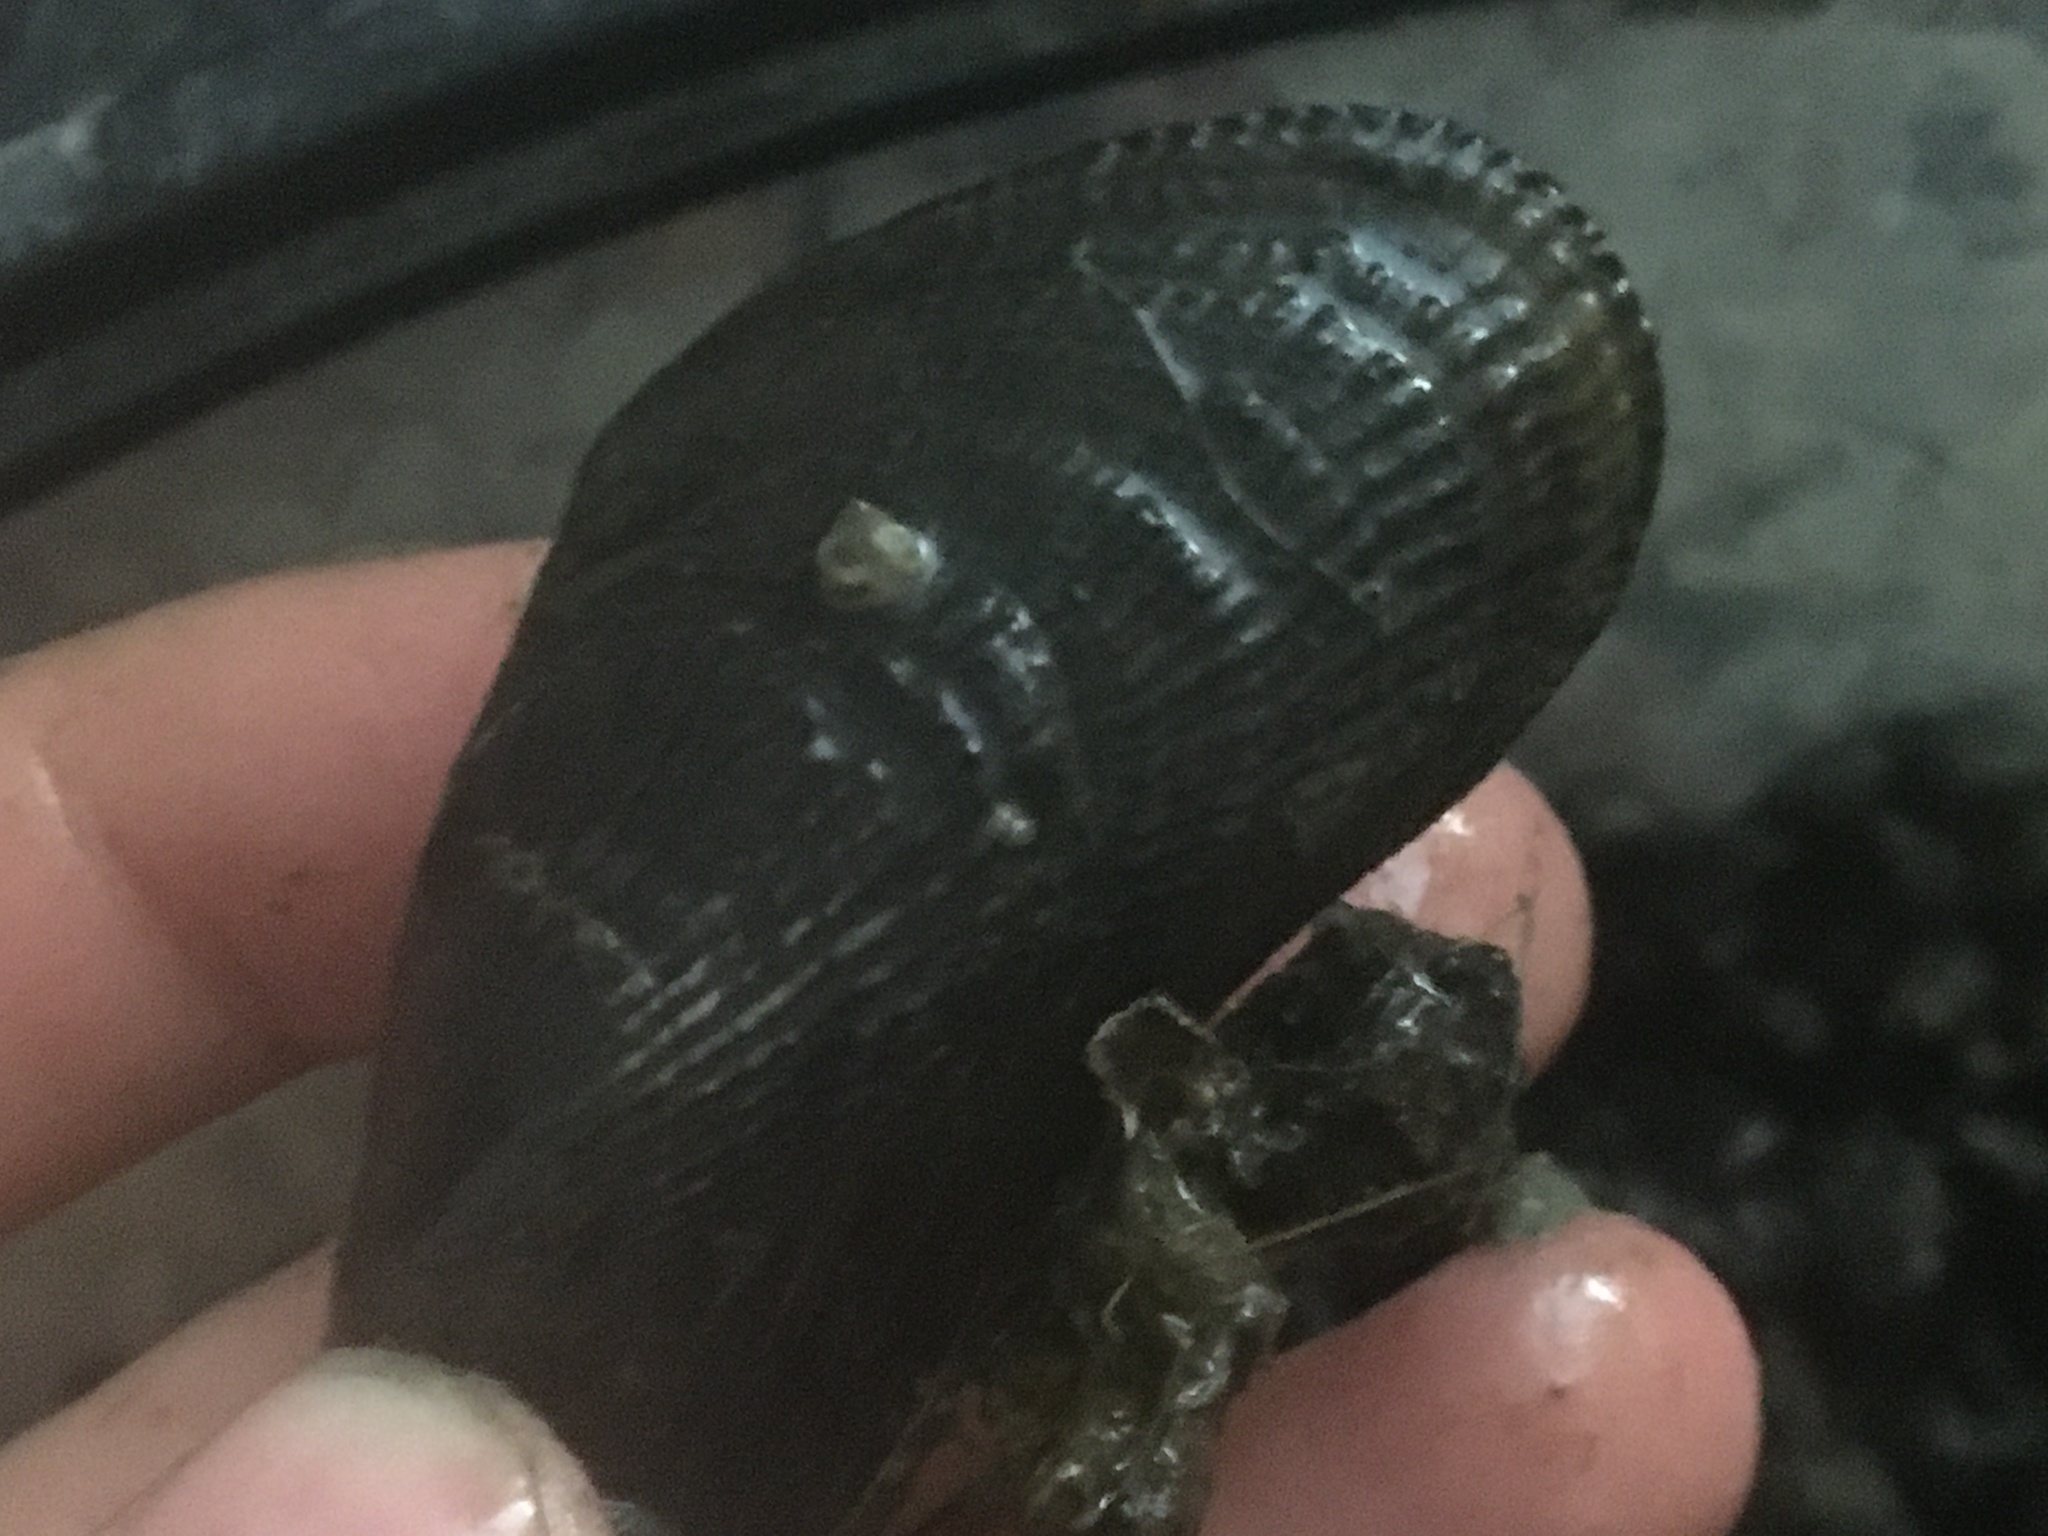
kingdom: Animalia
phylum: Mollusca
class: Bivalvia
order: Mytilida
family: Mytilidae
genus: Geukensia
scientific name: Geukensia demissa
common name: Ribbed mussel
